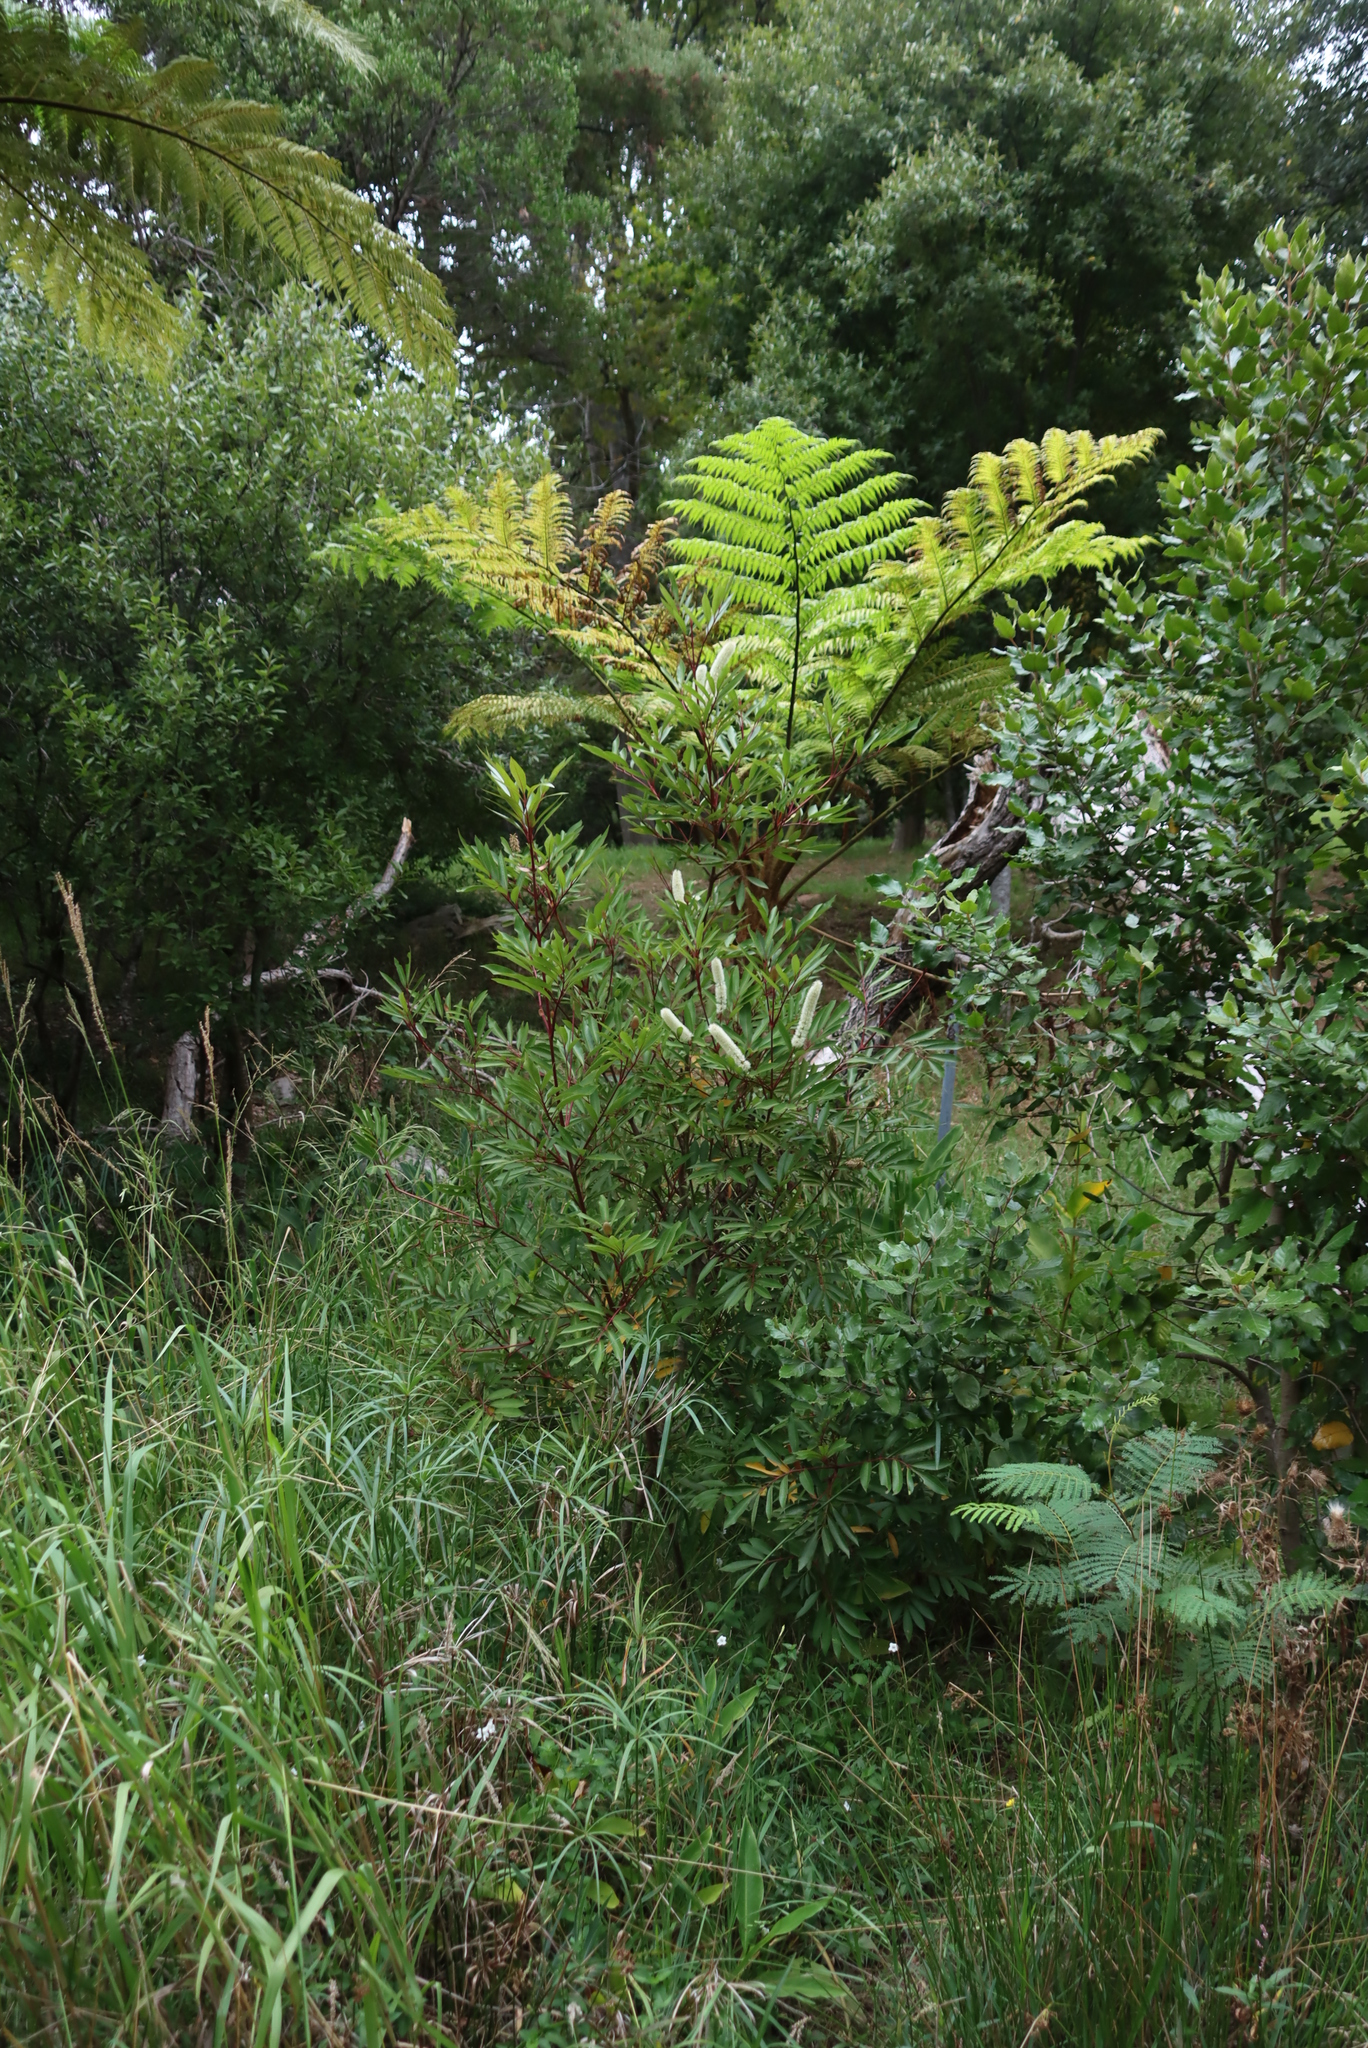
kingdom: Plantae
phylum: Tracheophyta
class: Magnoliopsida
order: Oxalidales
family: Cunoniaceae
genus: Cunonia
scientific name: Cunonia capensis
